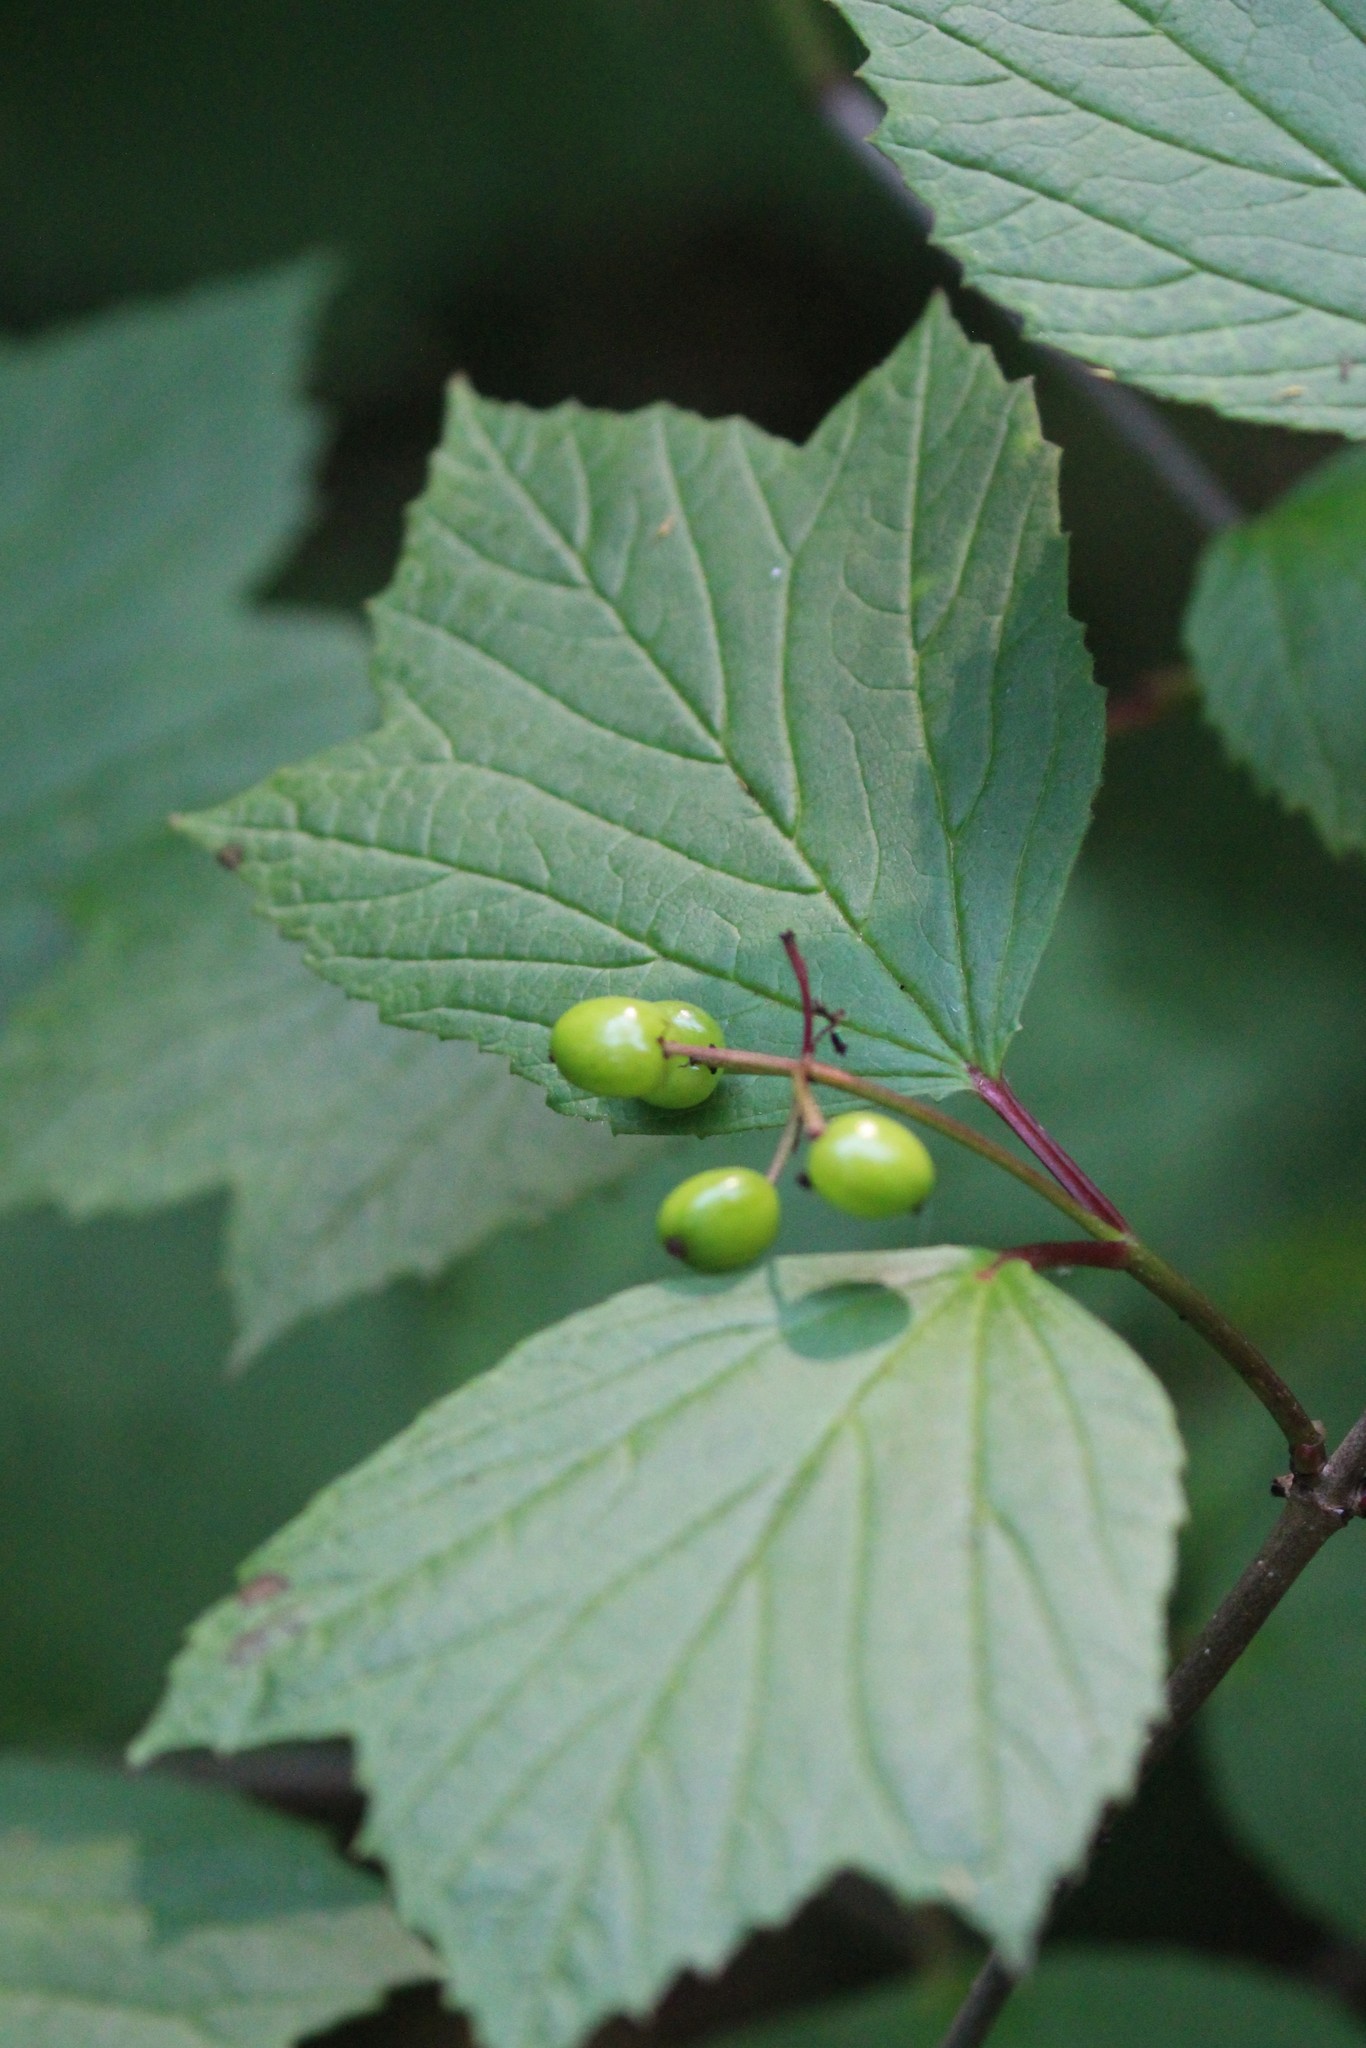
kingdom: Plantae
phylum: Tracheophyta
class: Magnoliopsida
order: Dipsacales
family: Viburnaceae
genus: Viburnum
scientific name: Viburnum edule
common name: Mooseberry
